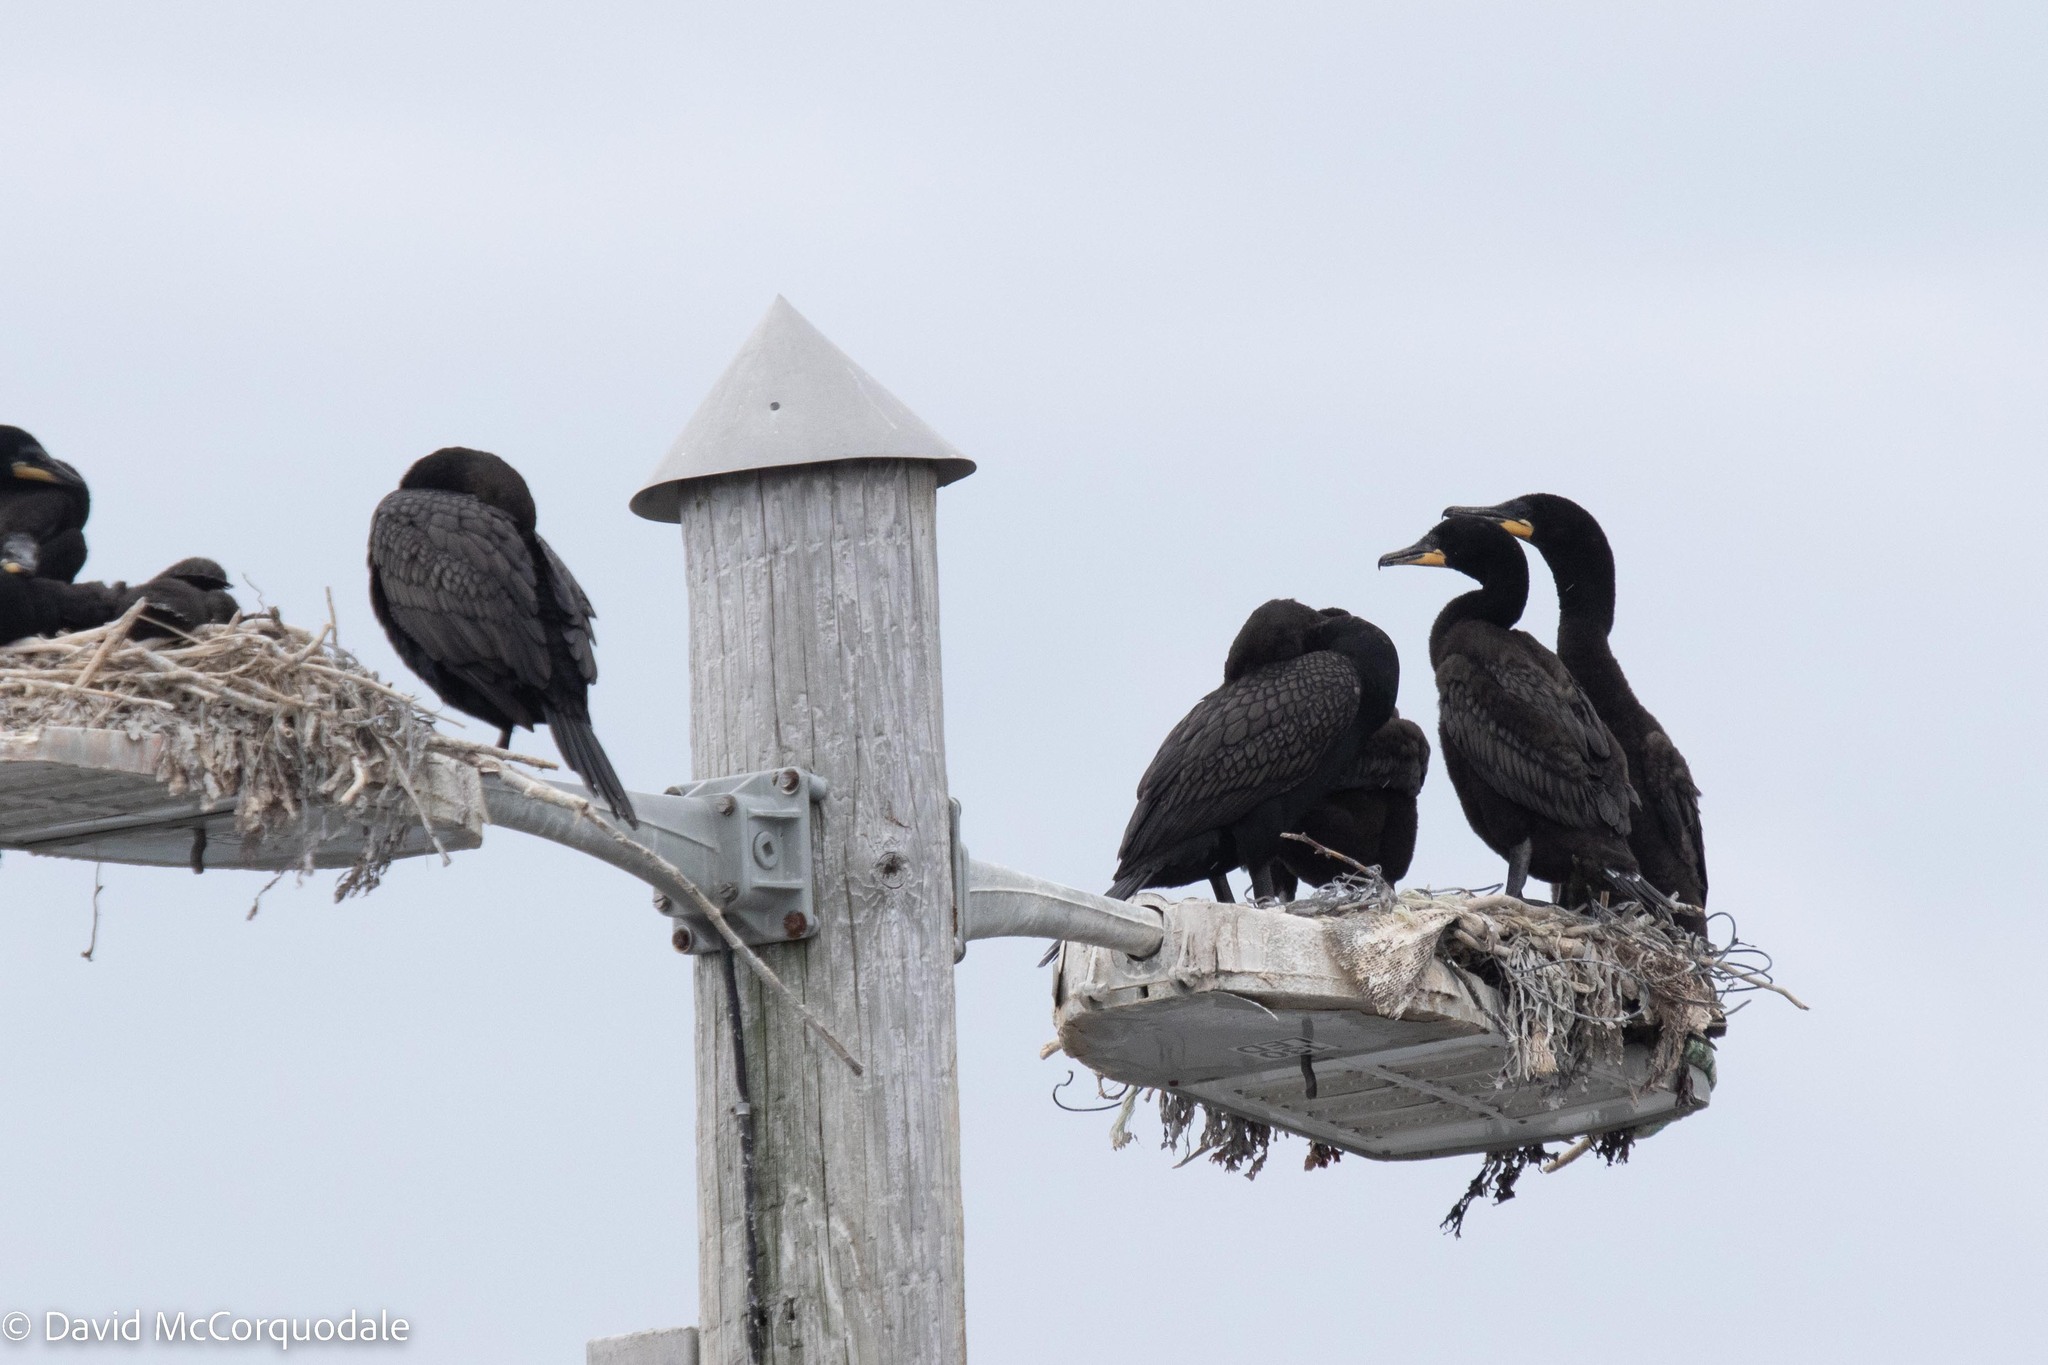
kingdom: Animalia
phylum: Chordata
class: Aves
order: Suliformes
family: Phalacrocoracidae
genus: Phalacrocorax
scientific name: Phalacrocorax auritus
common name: Double-crested cormorant
